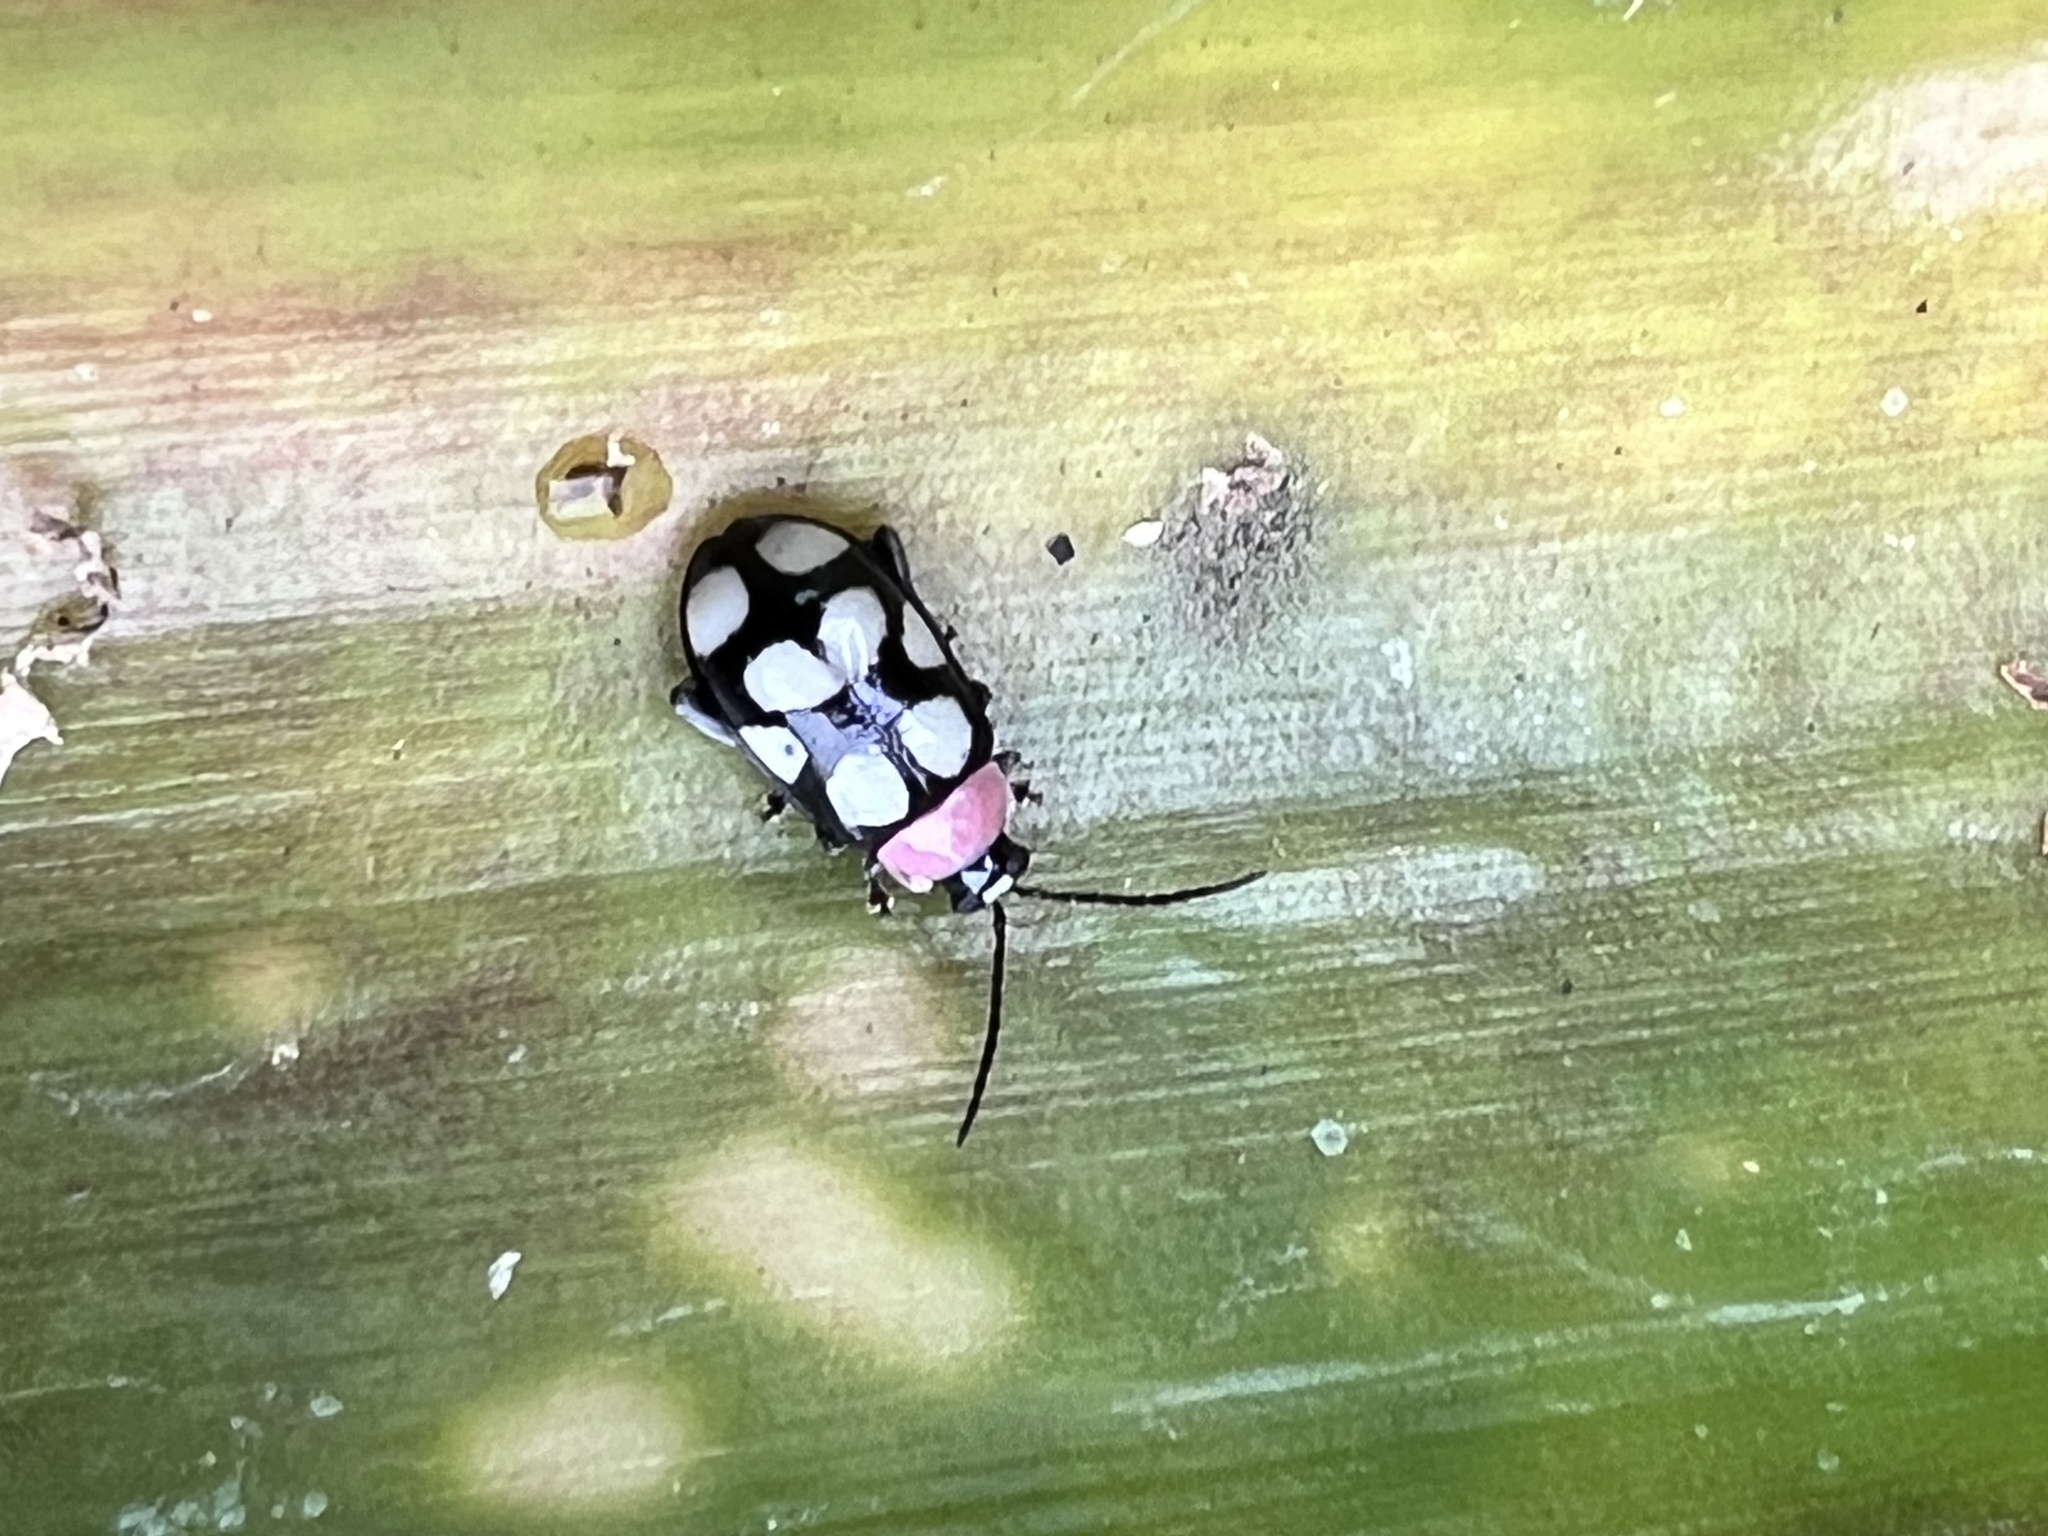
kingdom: Animalia
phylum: Arthropoda
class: Insecta
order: Coleoptera
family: Chrysomelidae
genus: Omophoita
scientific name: Omophoita aequinoctialis
